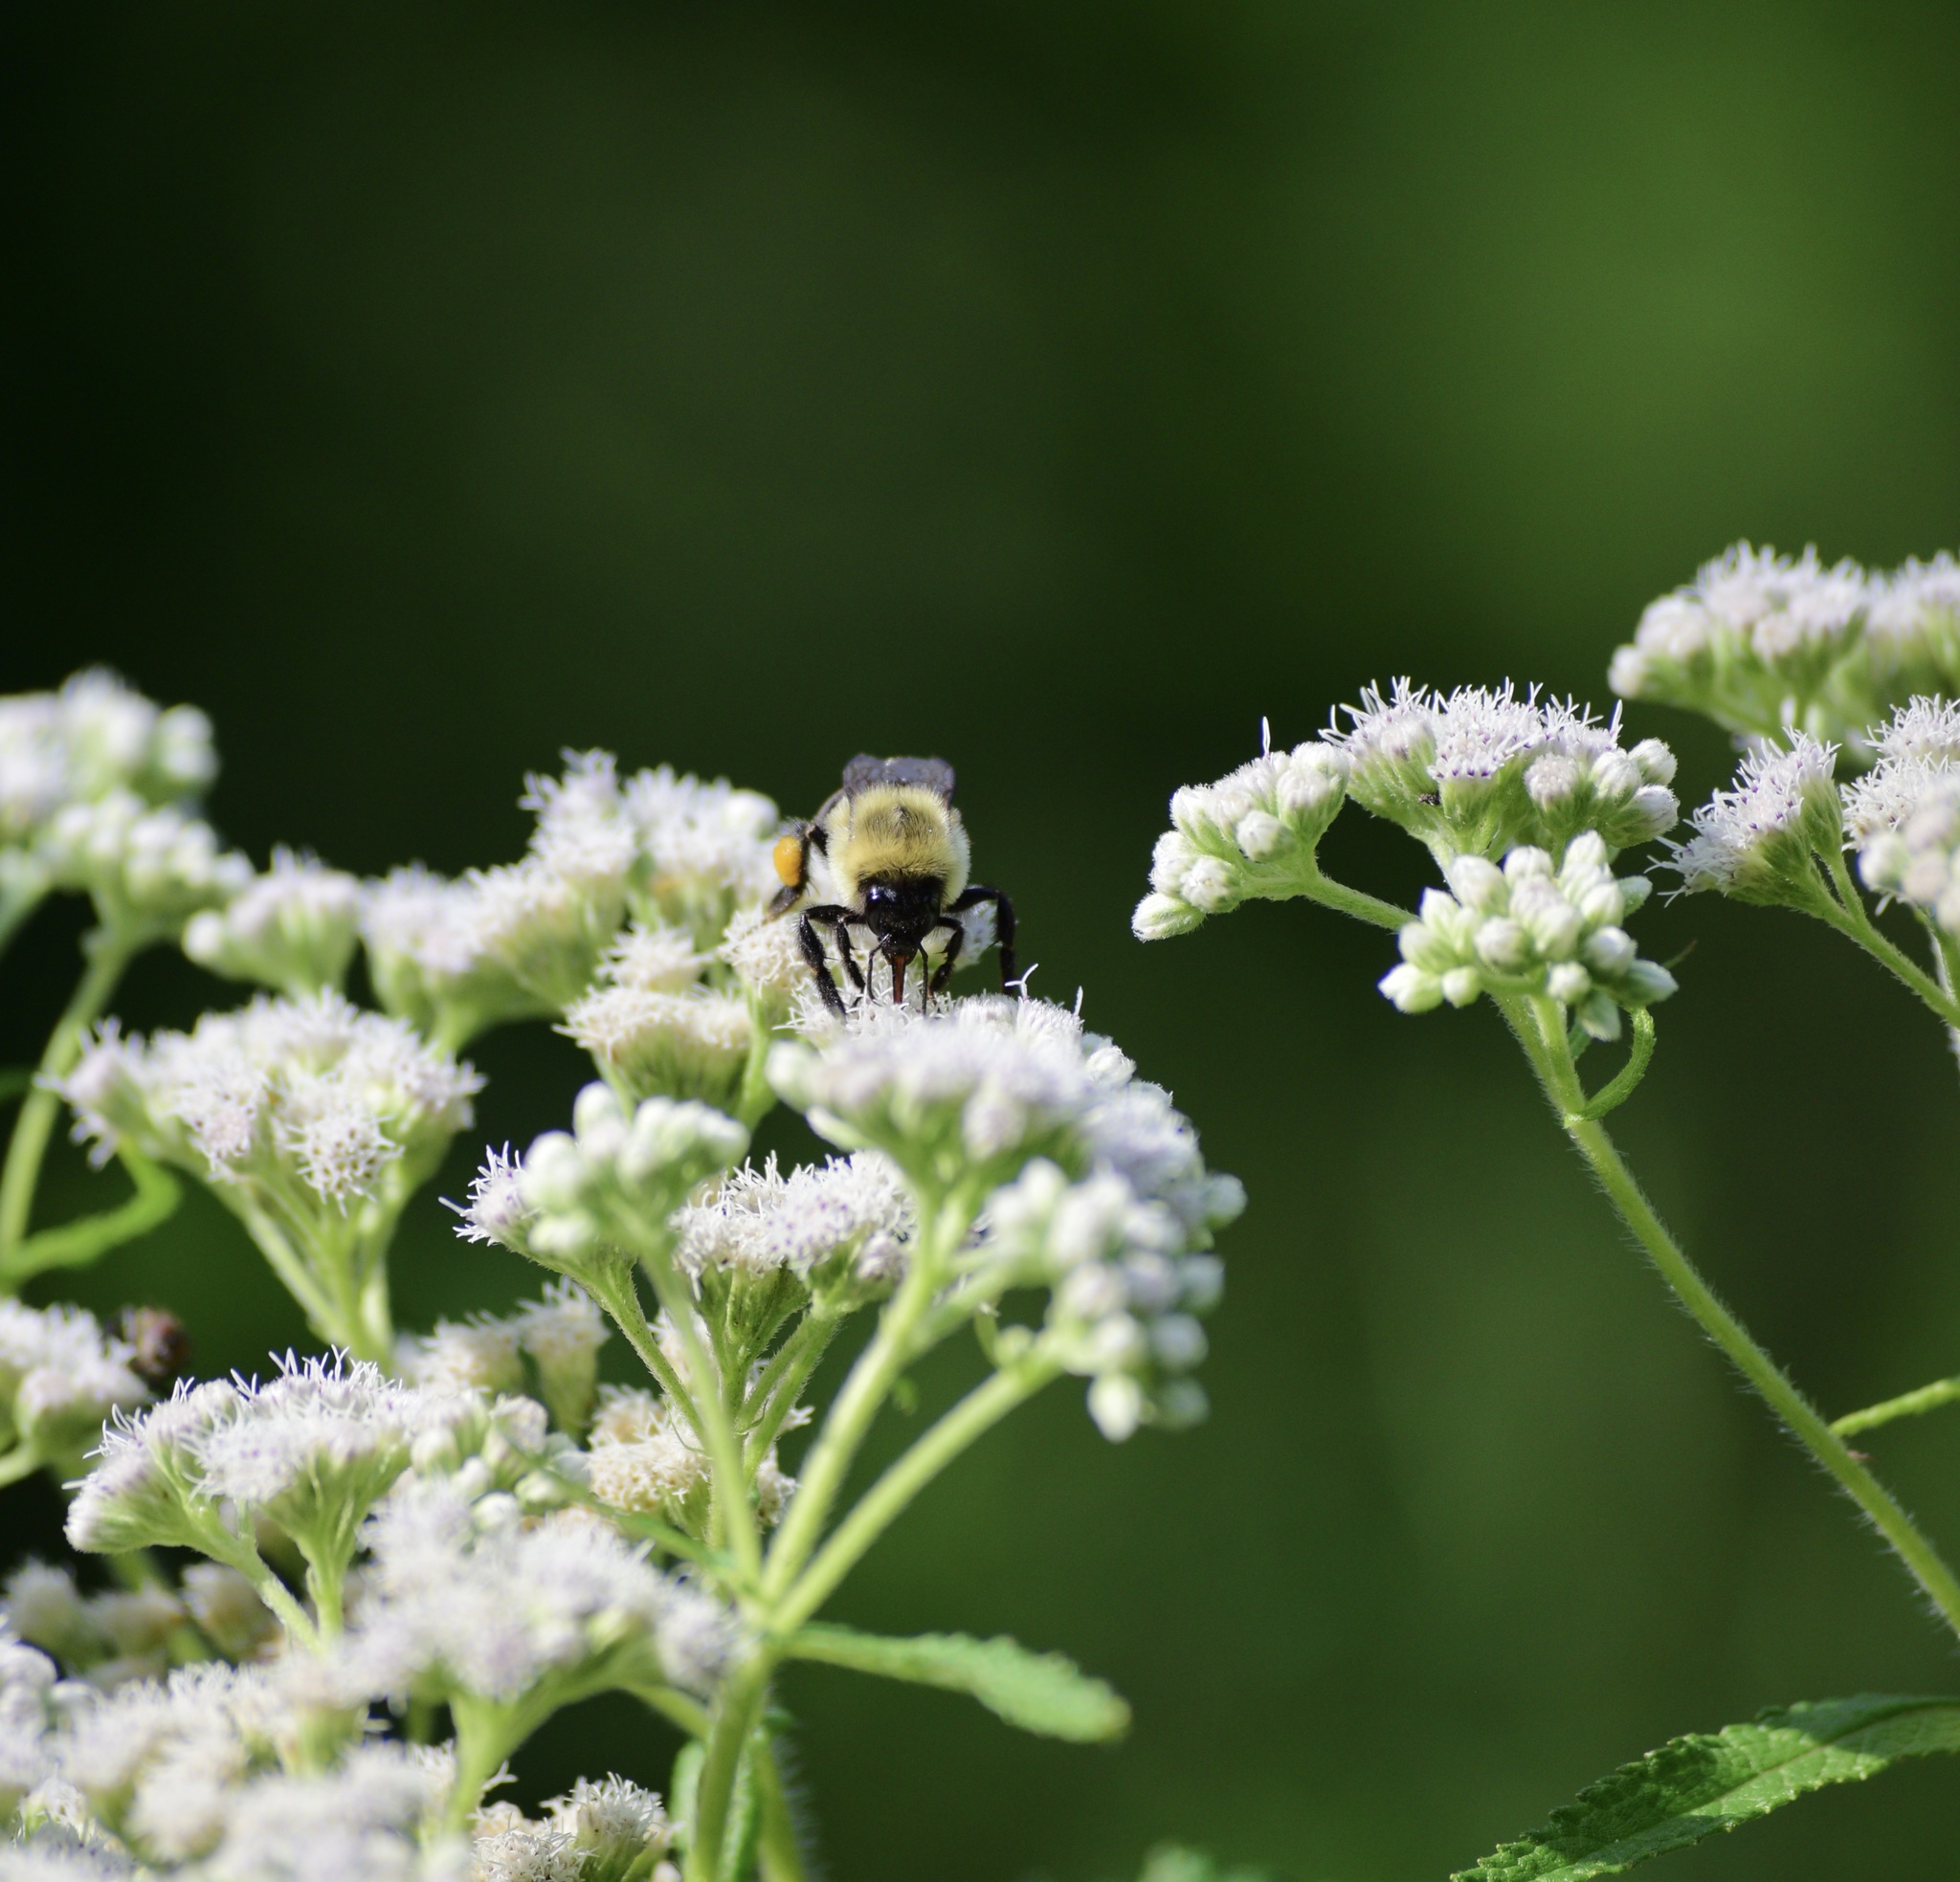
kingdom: Animalia
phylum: Arthropoda
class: Insecta
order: Hymenoptera
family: Apidae
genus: Bombus
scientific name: Bombus impatiens
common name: Common eastern bumble bee
